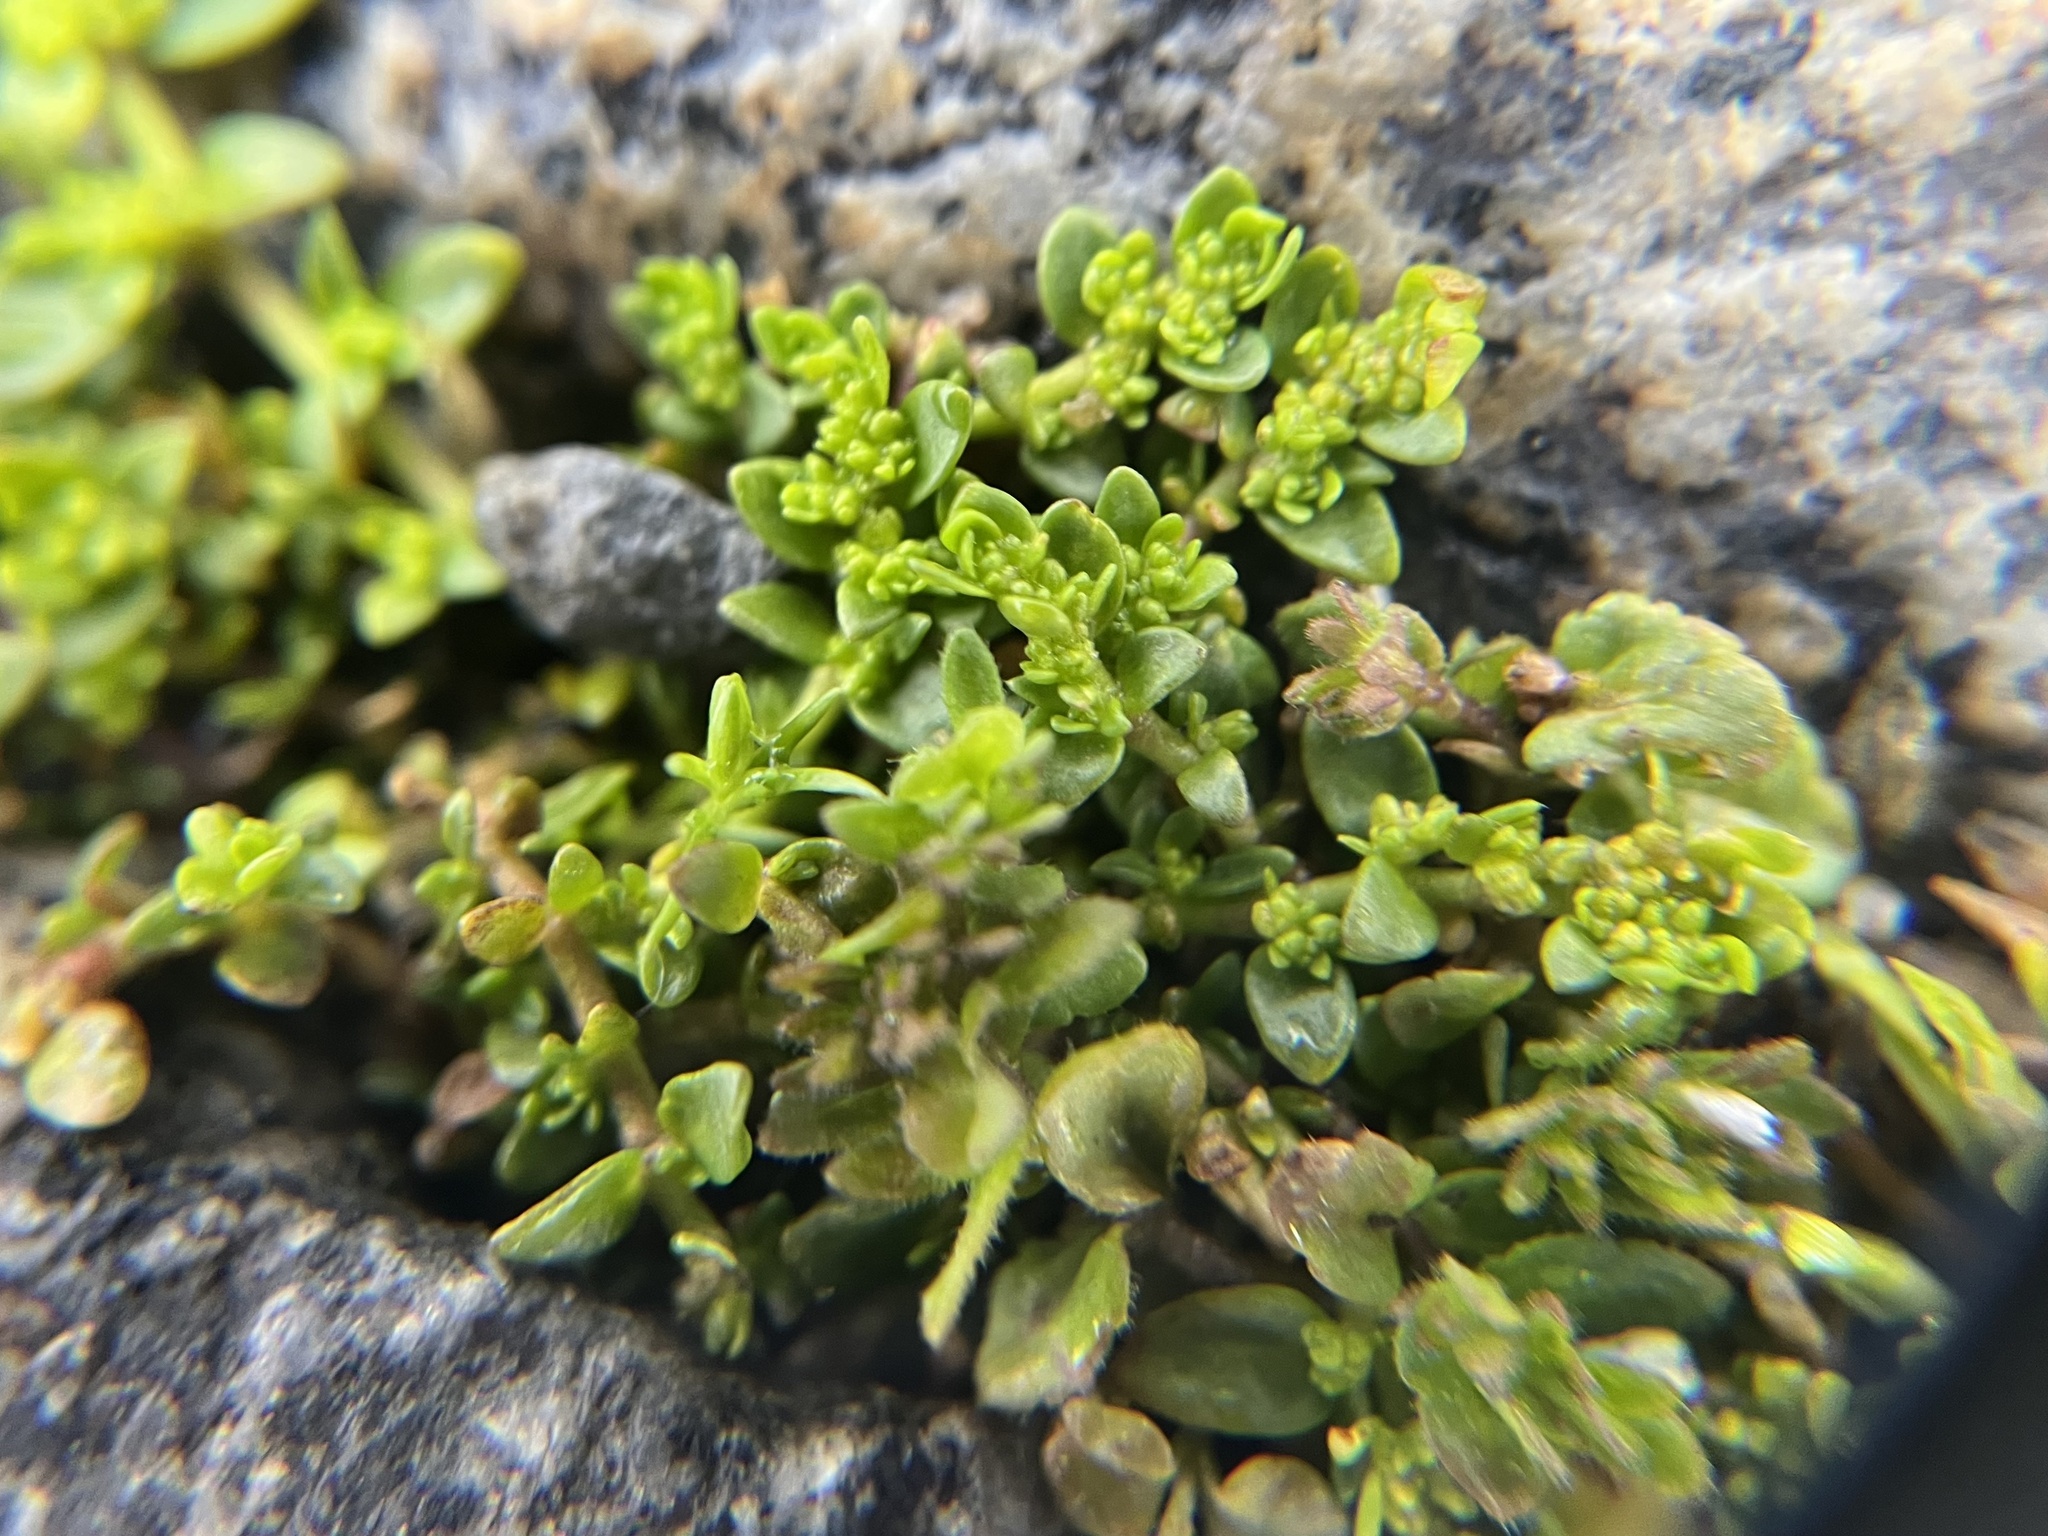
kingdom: Plantae
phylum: Tracheophyta
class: Magnoliopsida
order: Caryophyllales
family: Caryophyllaceae
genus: Herniaria
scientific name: Herniaria glabra
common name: Smooth rupturewort
